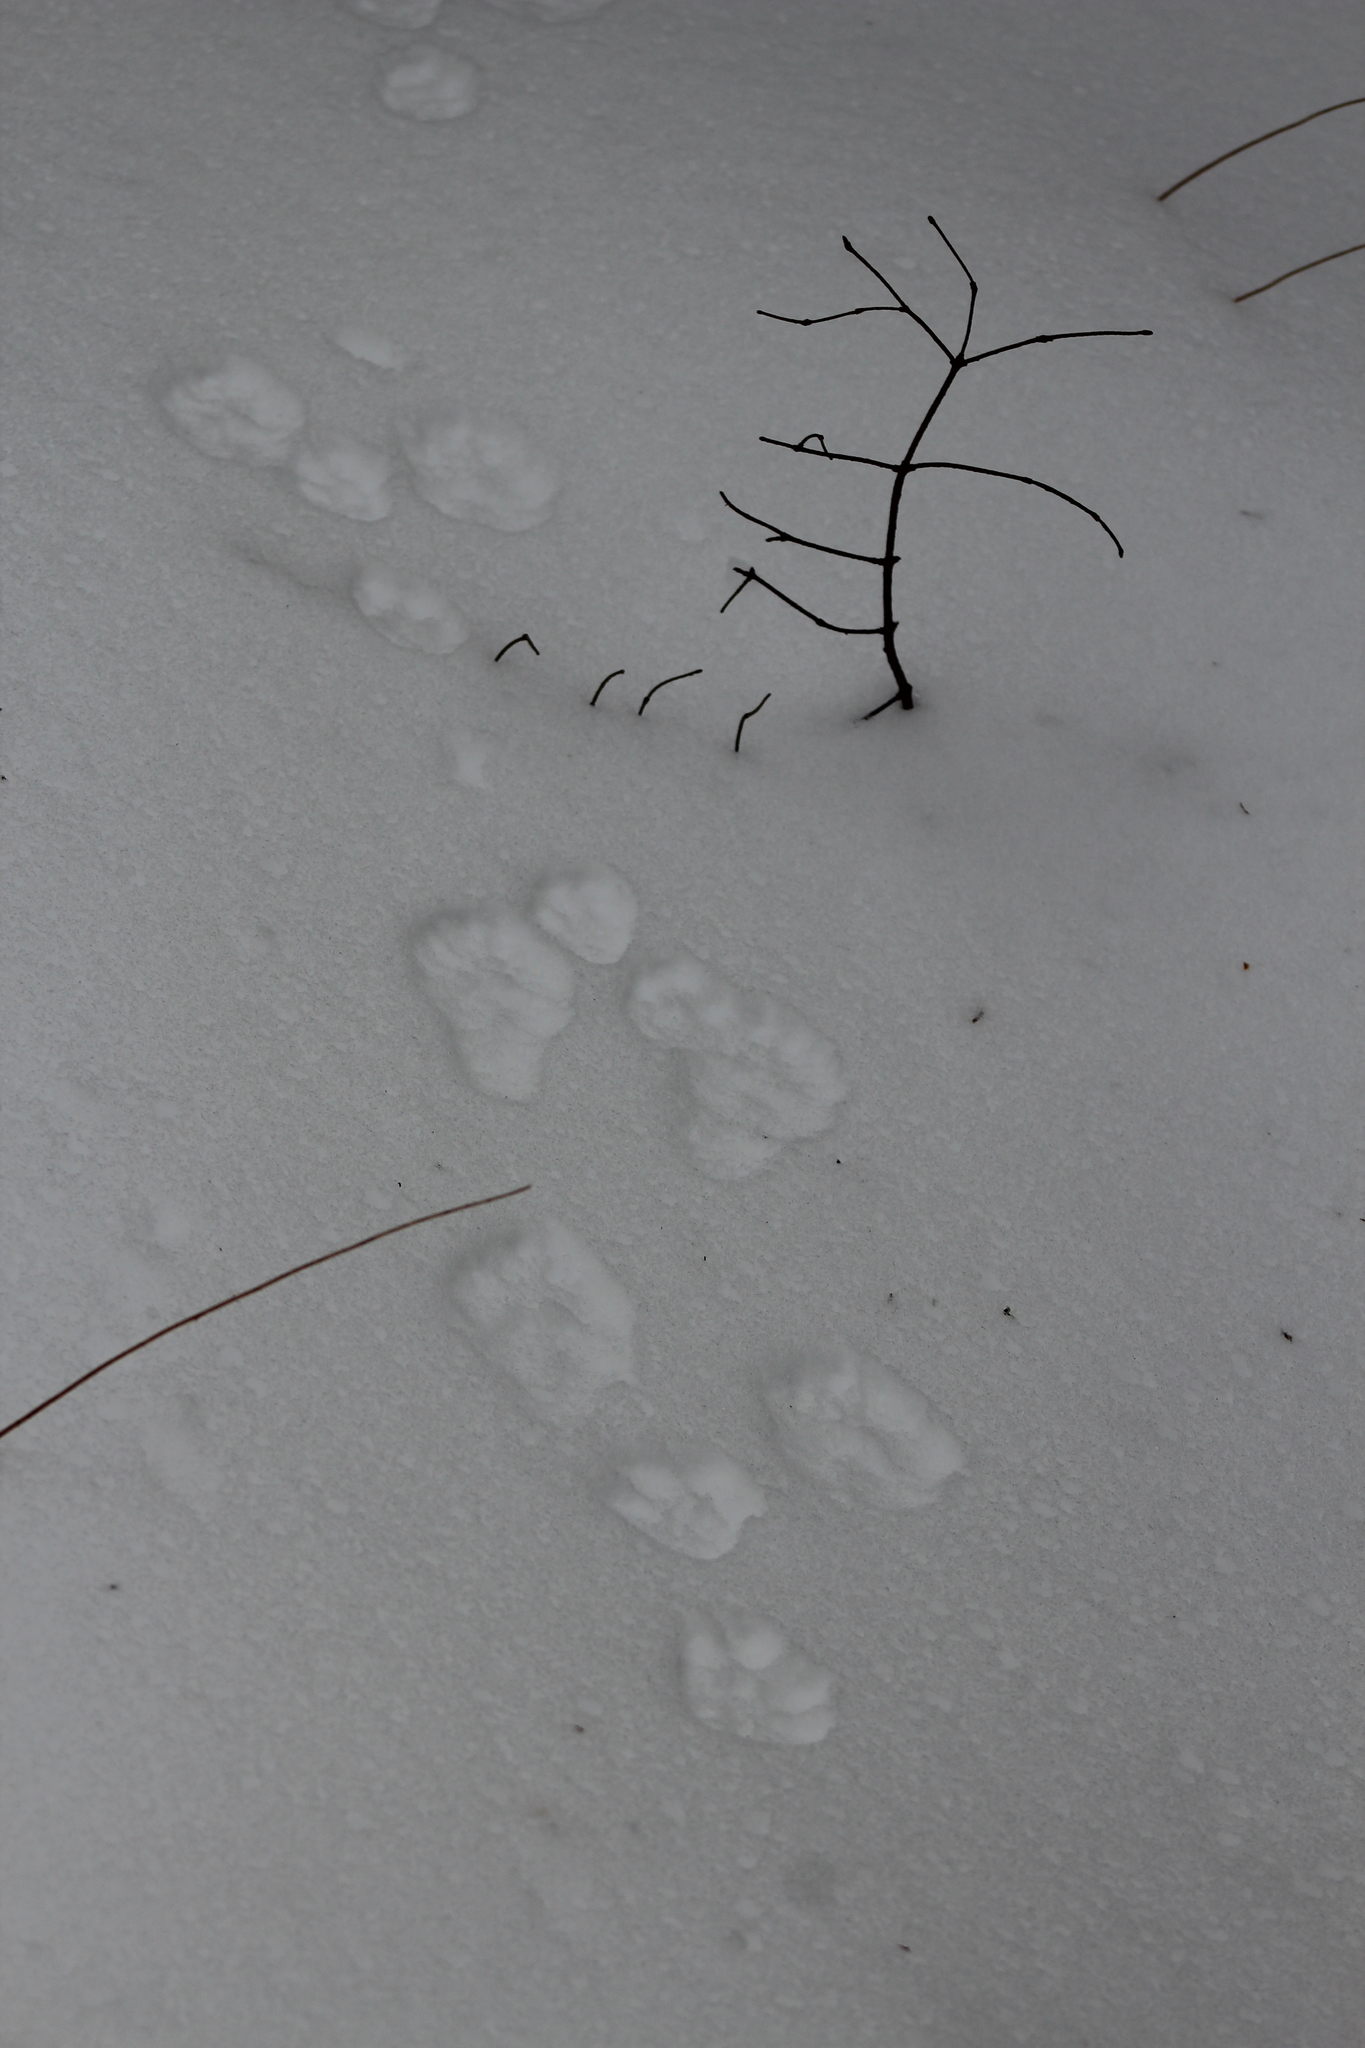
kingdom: Animalia
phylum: Chordata
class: Mammalia
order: Lagomorpha
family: Leporidae
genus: Lepus
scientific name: Lepus americanus
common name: Snowshoe hare
